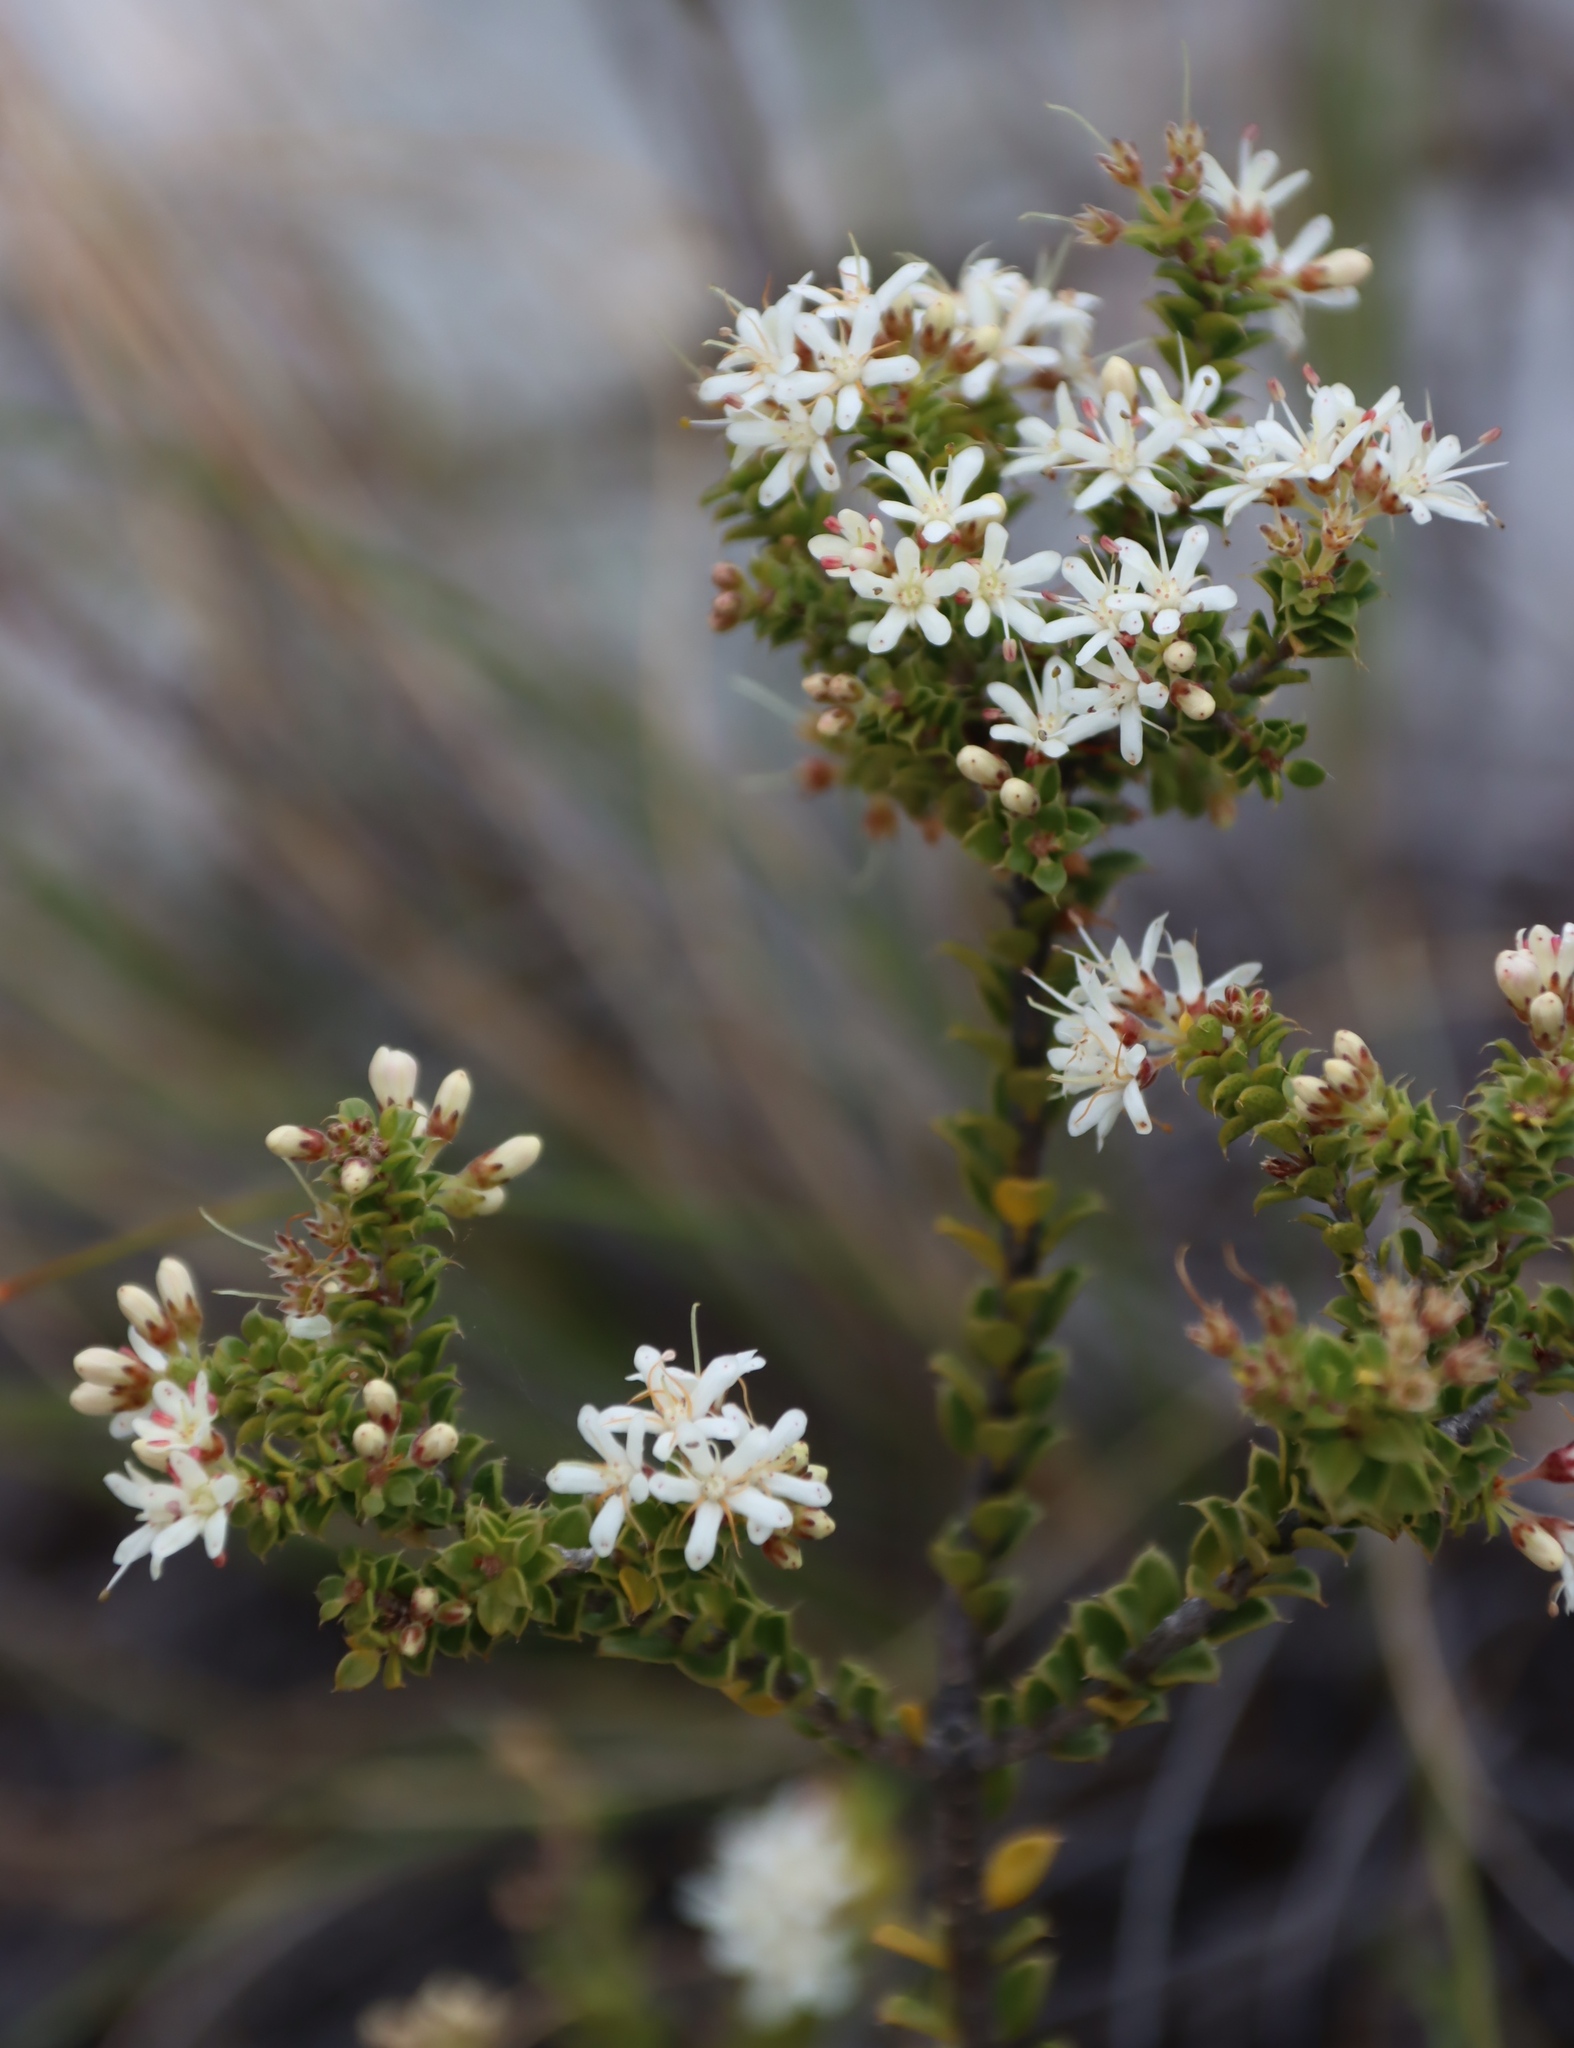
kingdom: Plantae
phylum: Tracheophyta
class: Magnoliopsida
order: Sapindales
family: Rutaceae
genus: Agathosma
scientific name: Agathosma recurvifolia
